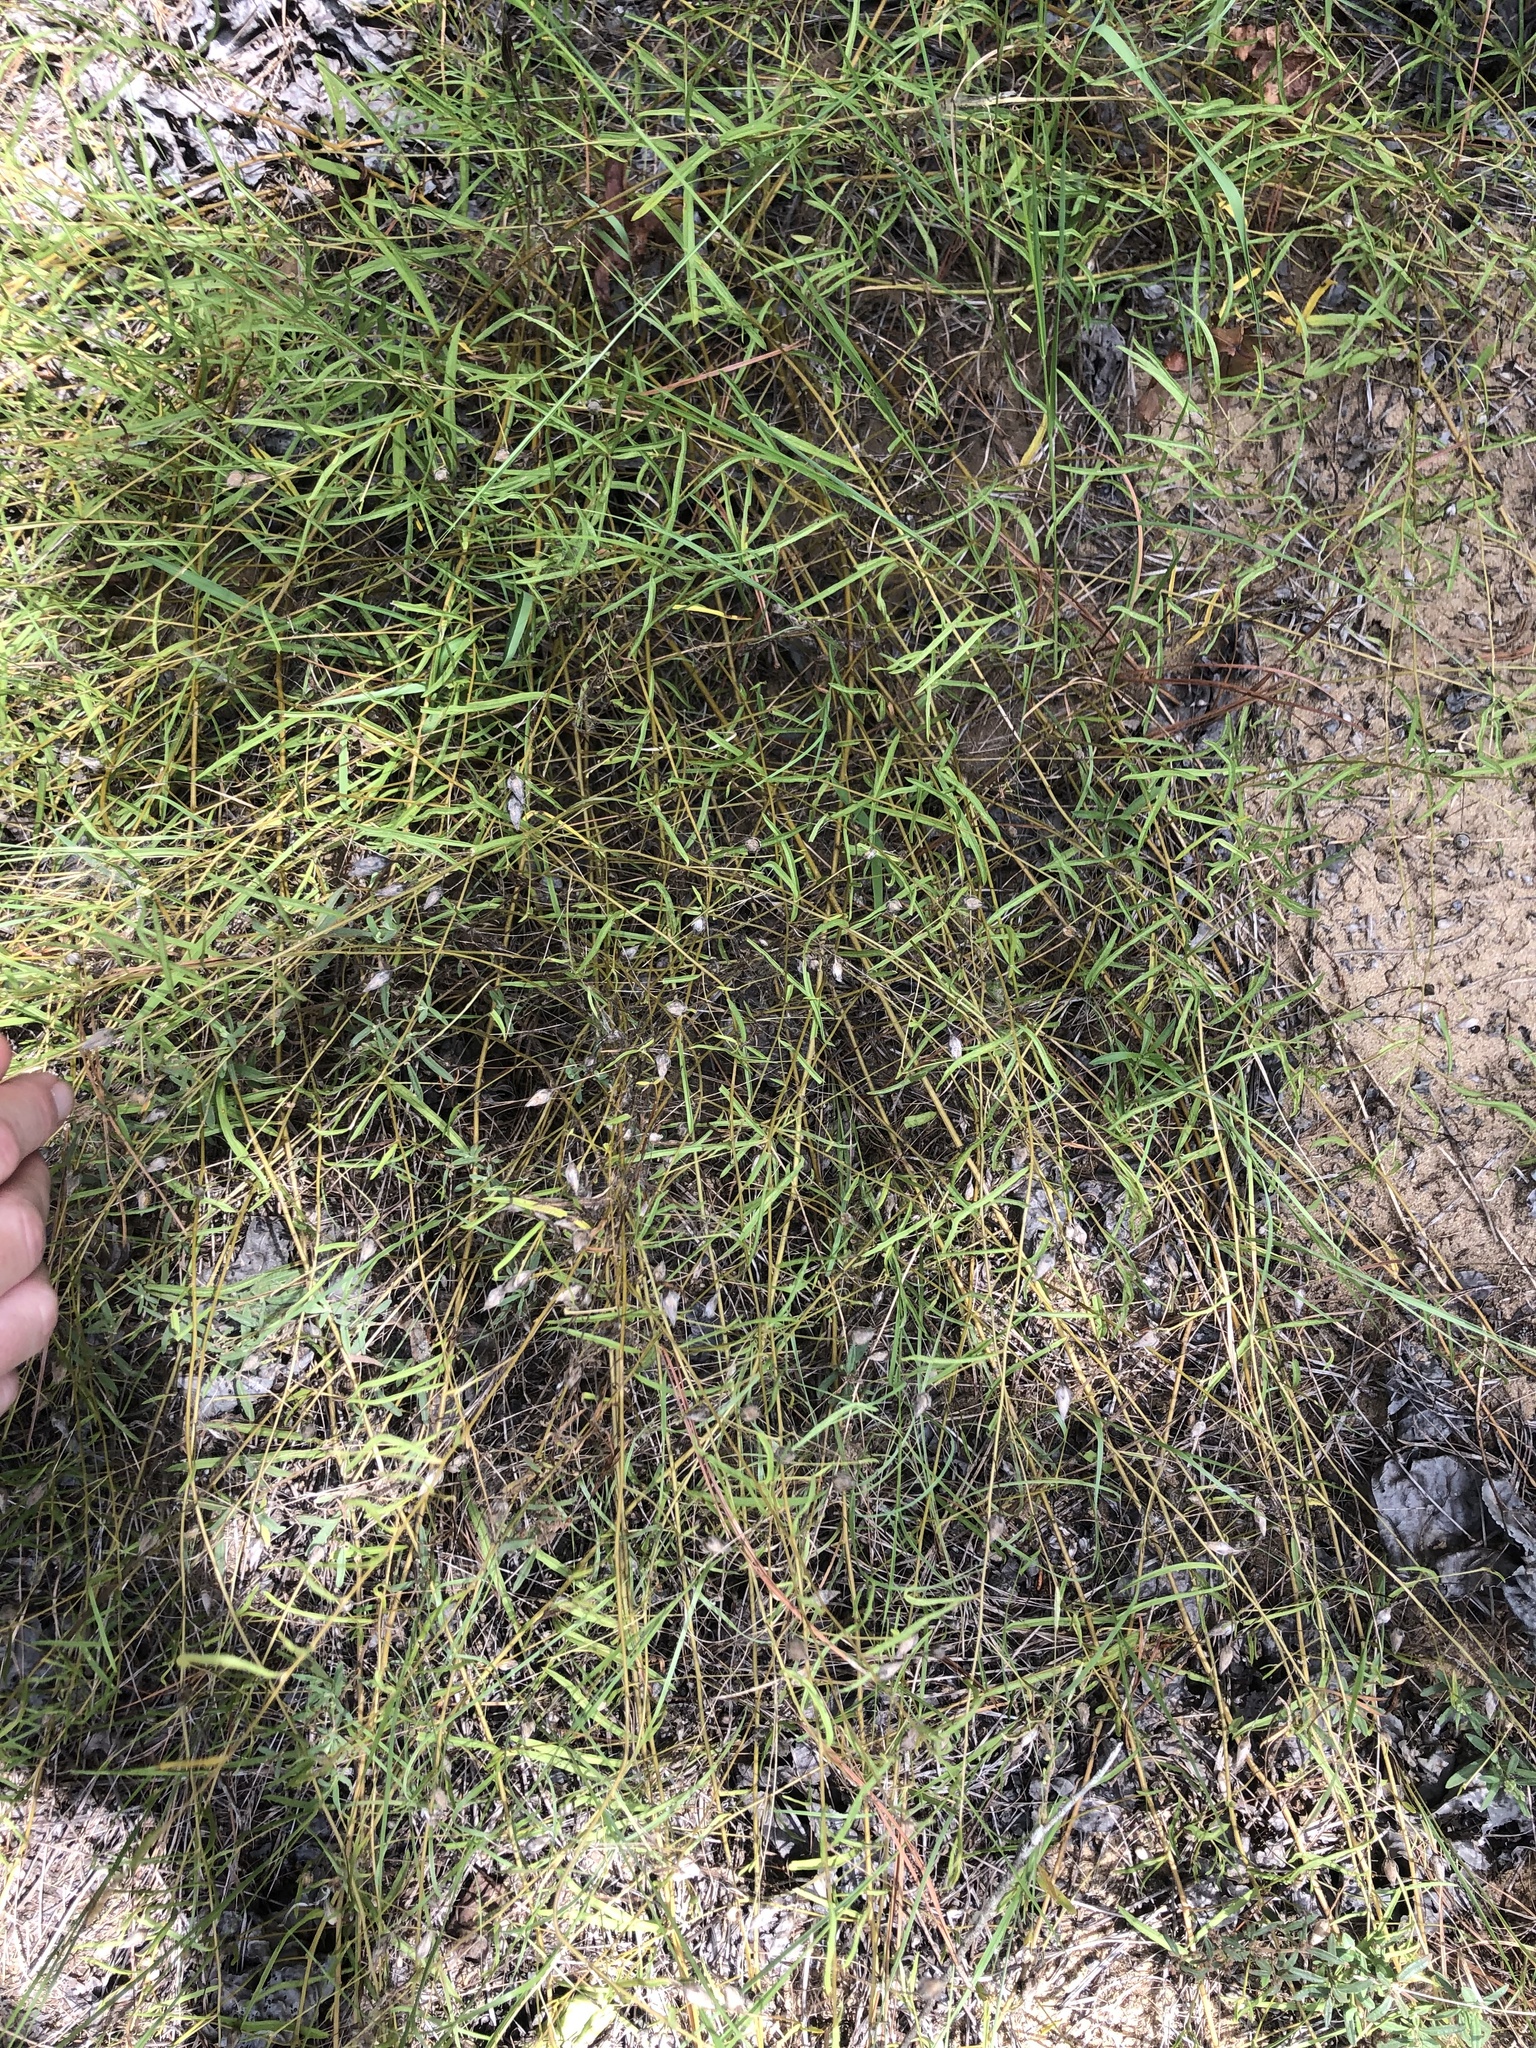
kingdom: Plantae
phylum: Tracheophyta
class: Magnoliopsida
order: Solanales
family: Convolvulaceae
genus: Stylisma
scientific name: Stylisma pickeringii
